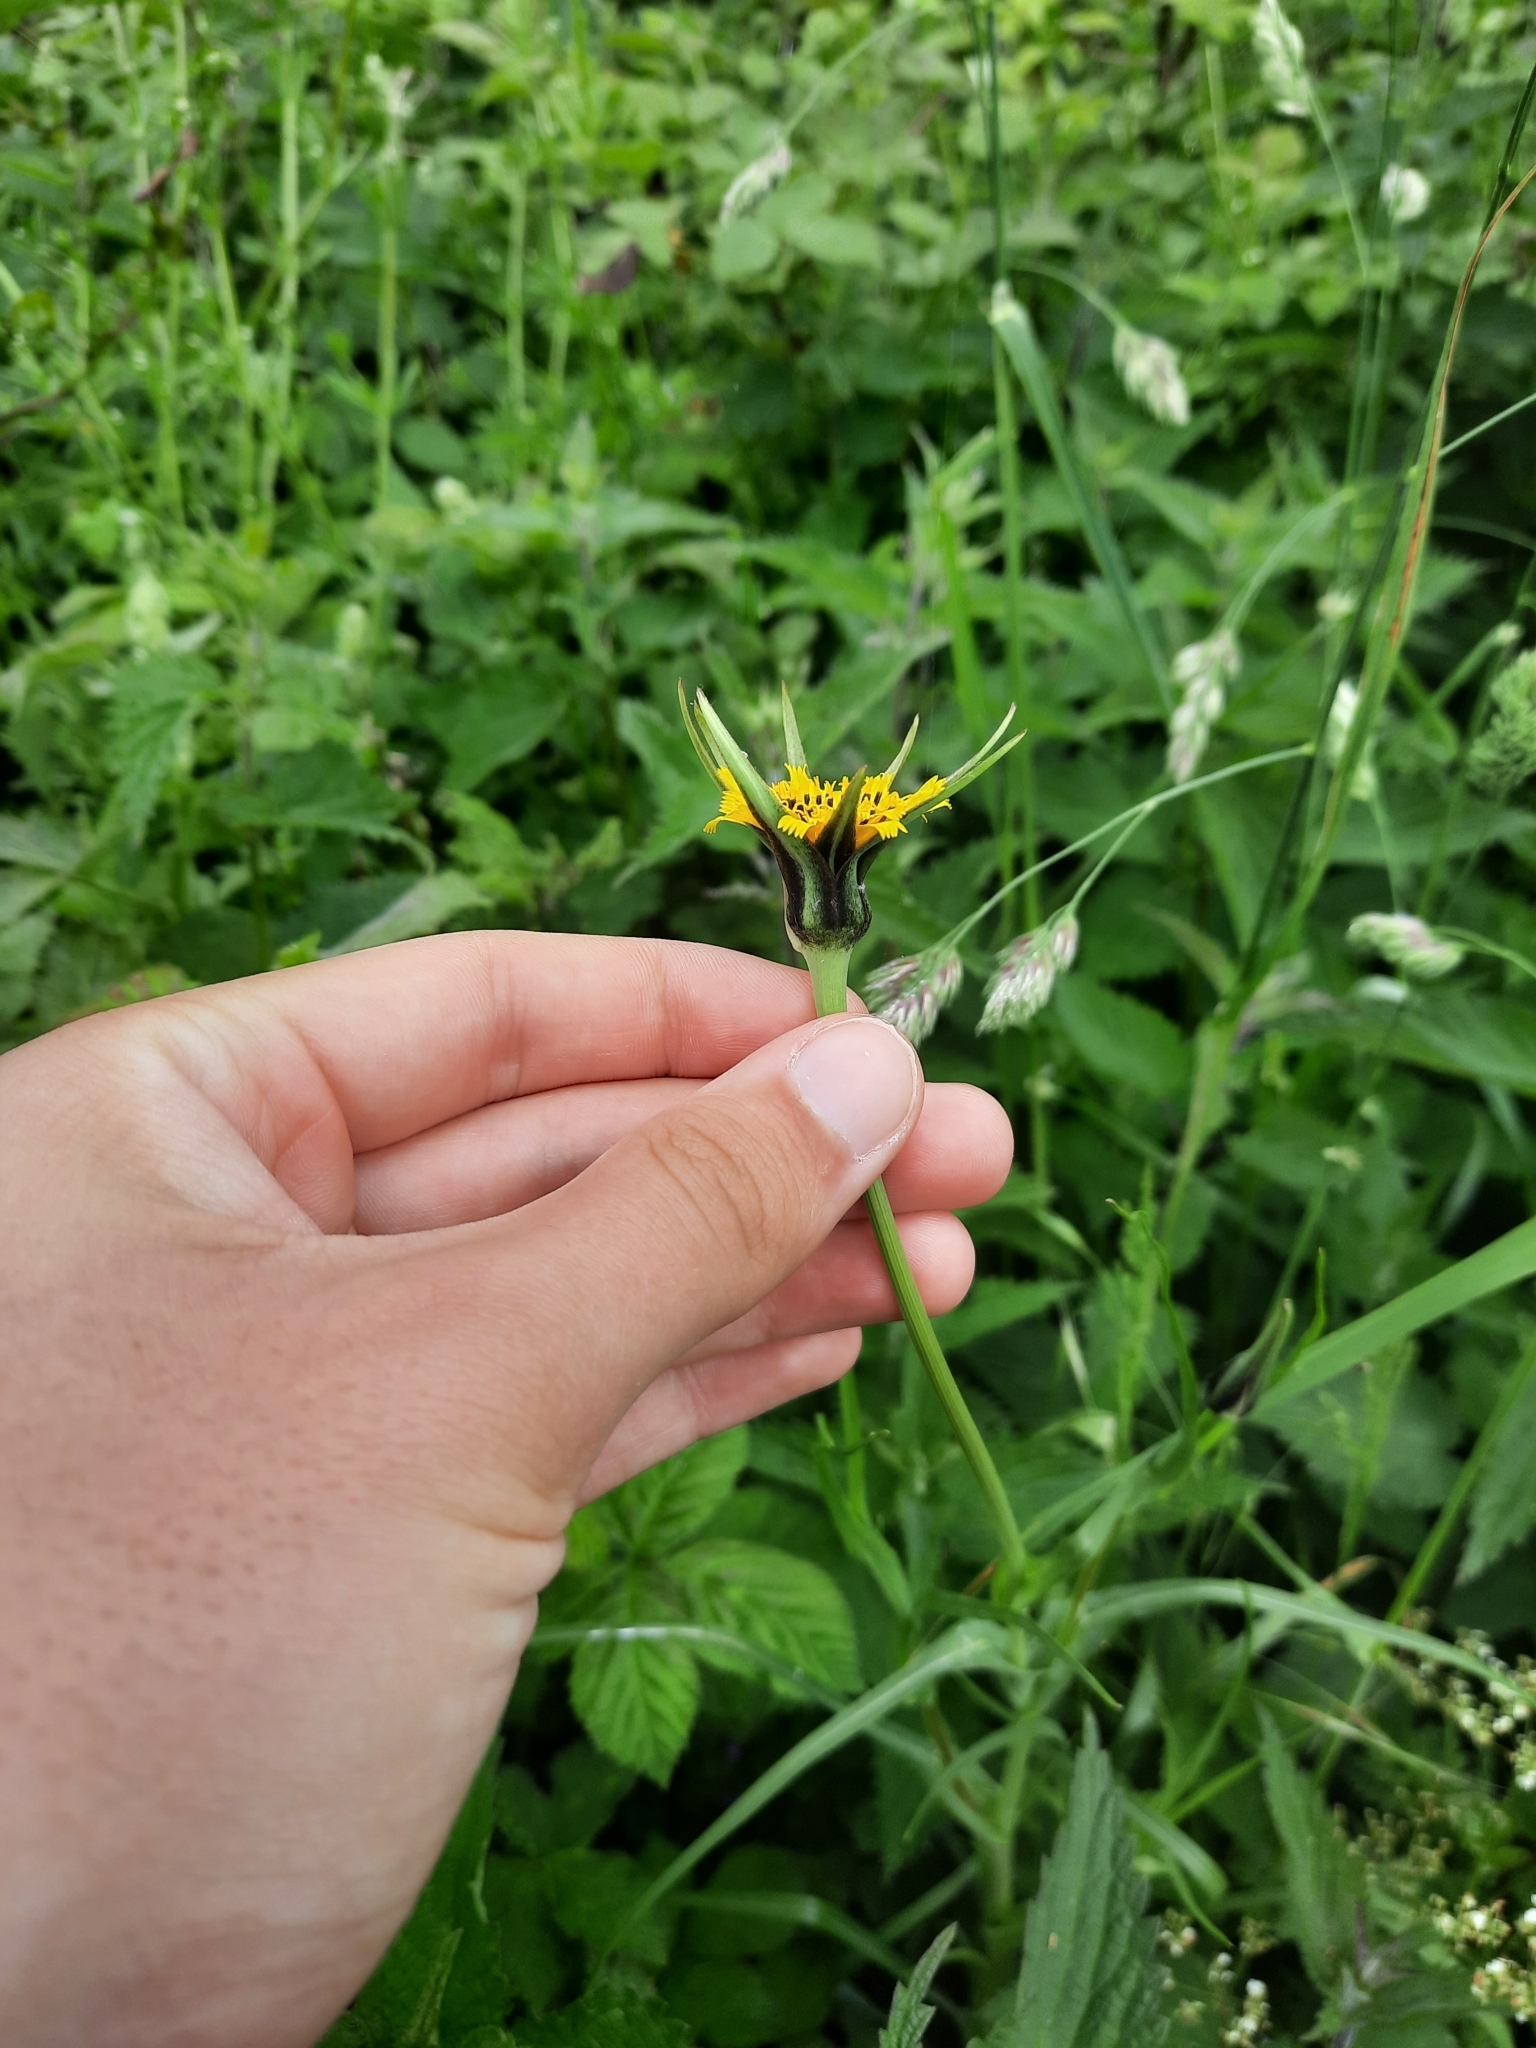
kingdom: Plantae
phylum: Tracheophyta
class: Magnoliopsida
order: Asterales
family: Asteraceae
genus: Tragopogon
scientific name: Tragopogon pratensis
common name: Goat's-beard
